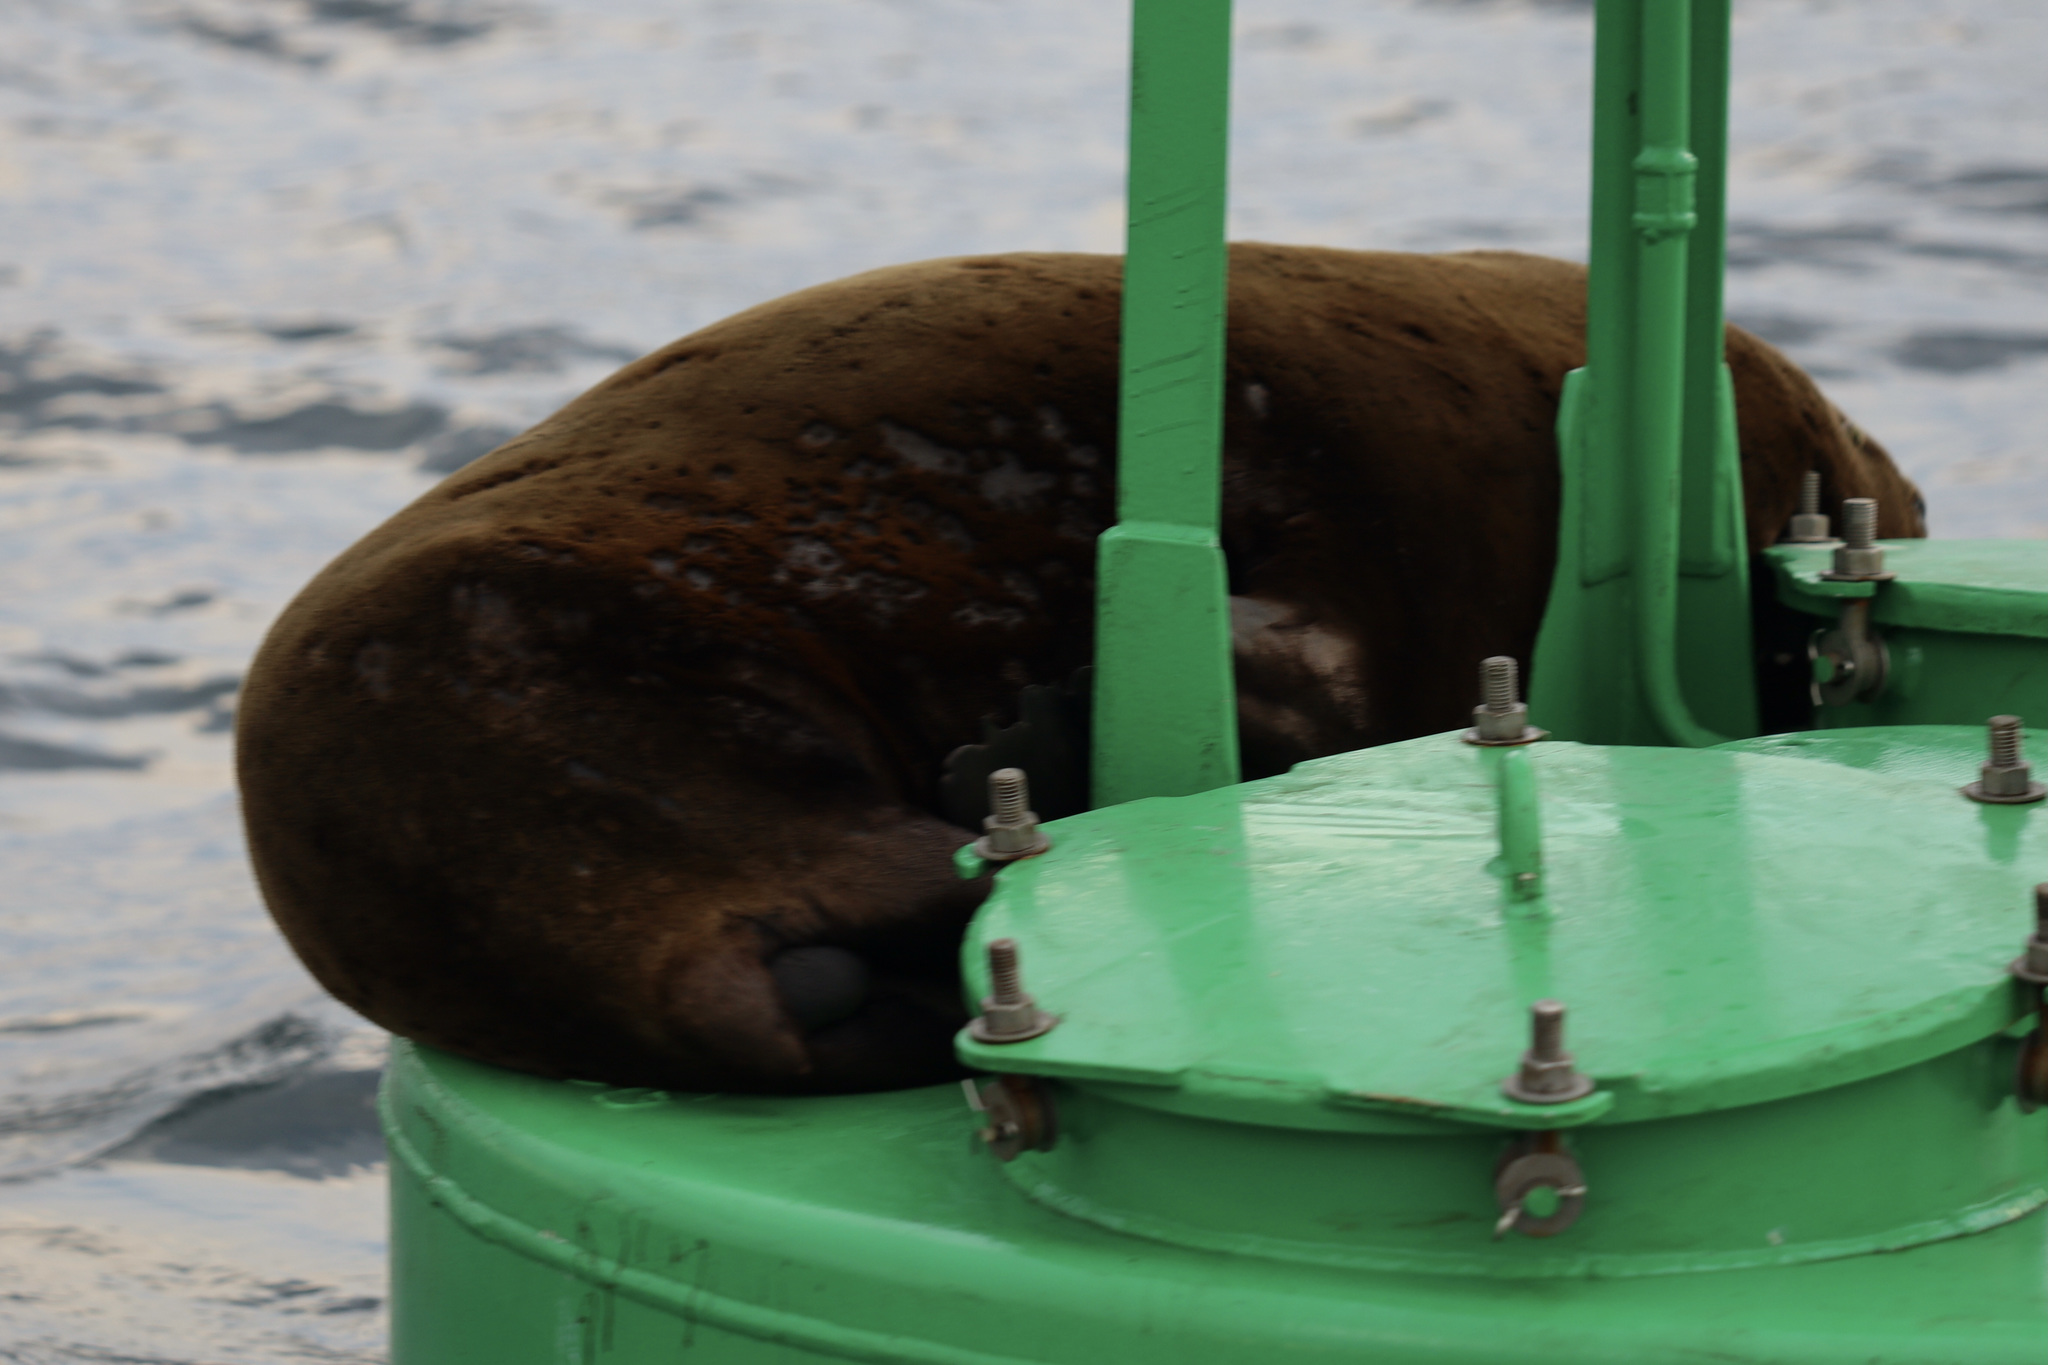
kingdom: Animalia
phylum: Chordata
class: Mammalia
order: Carnivora
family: Otariidae
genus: Zalophus
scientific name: Zalophus californianus
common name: California sea lion
